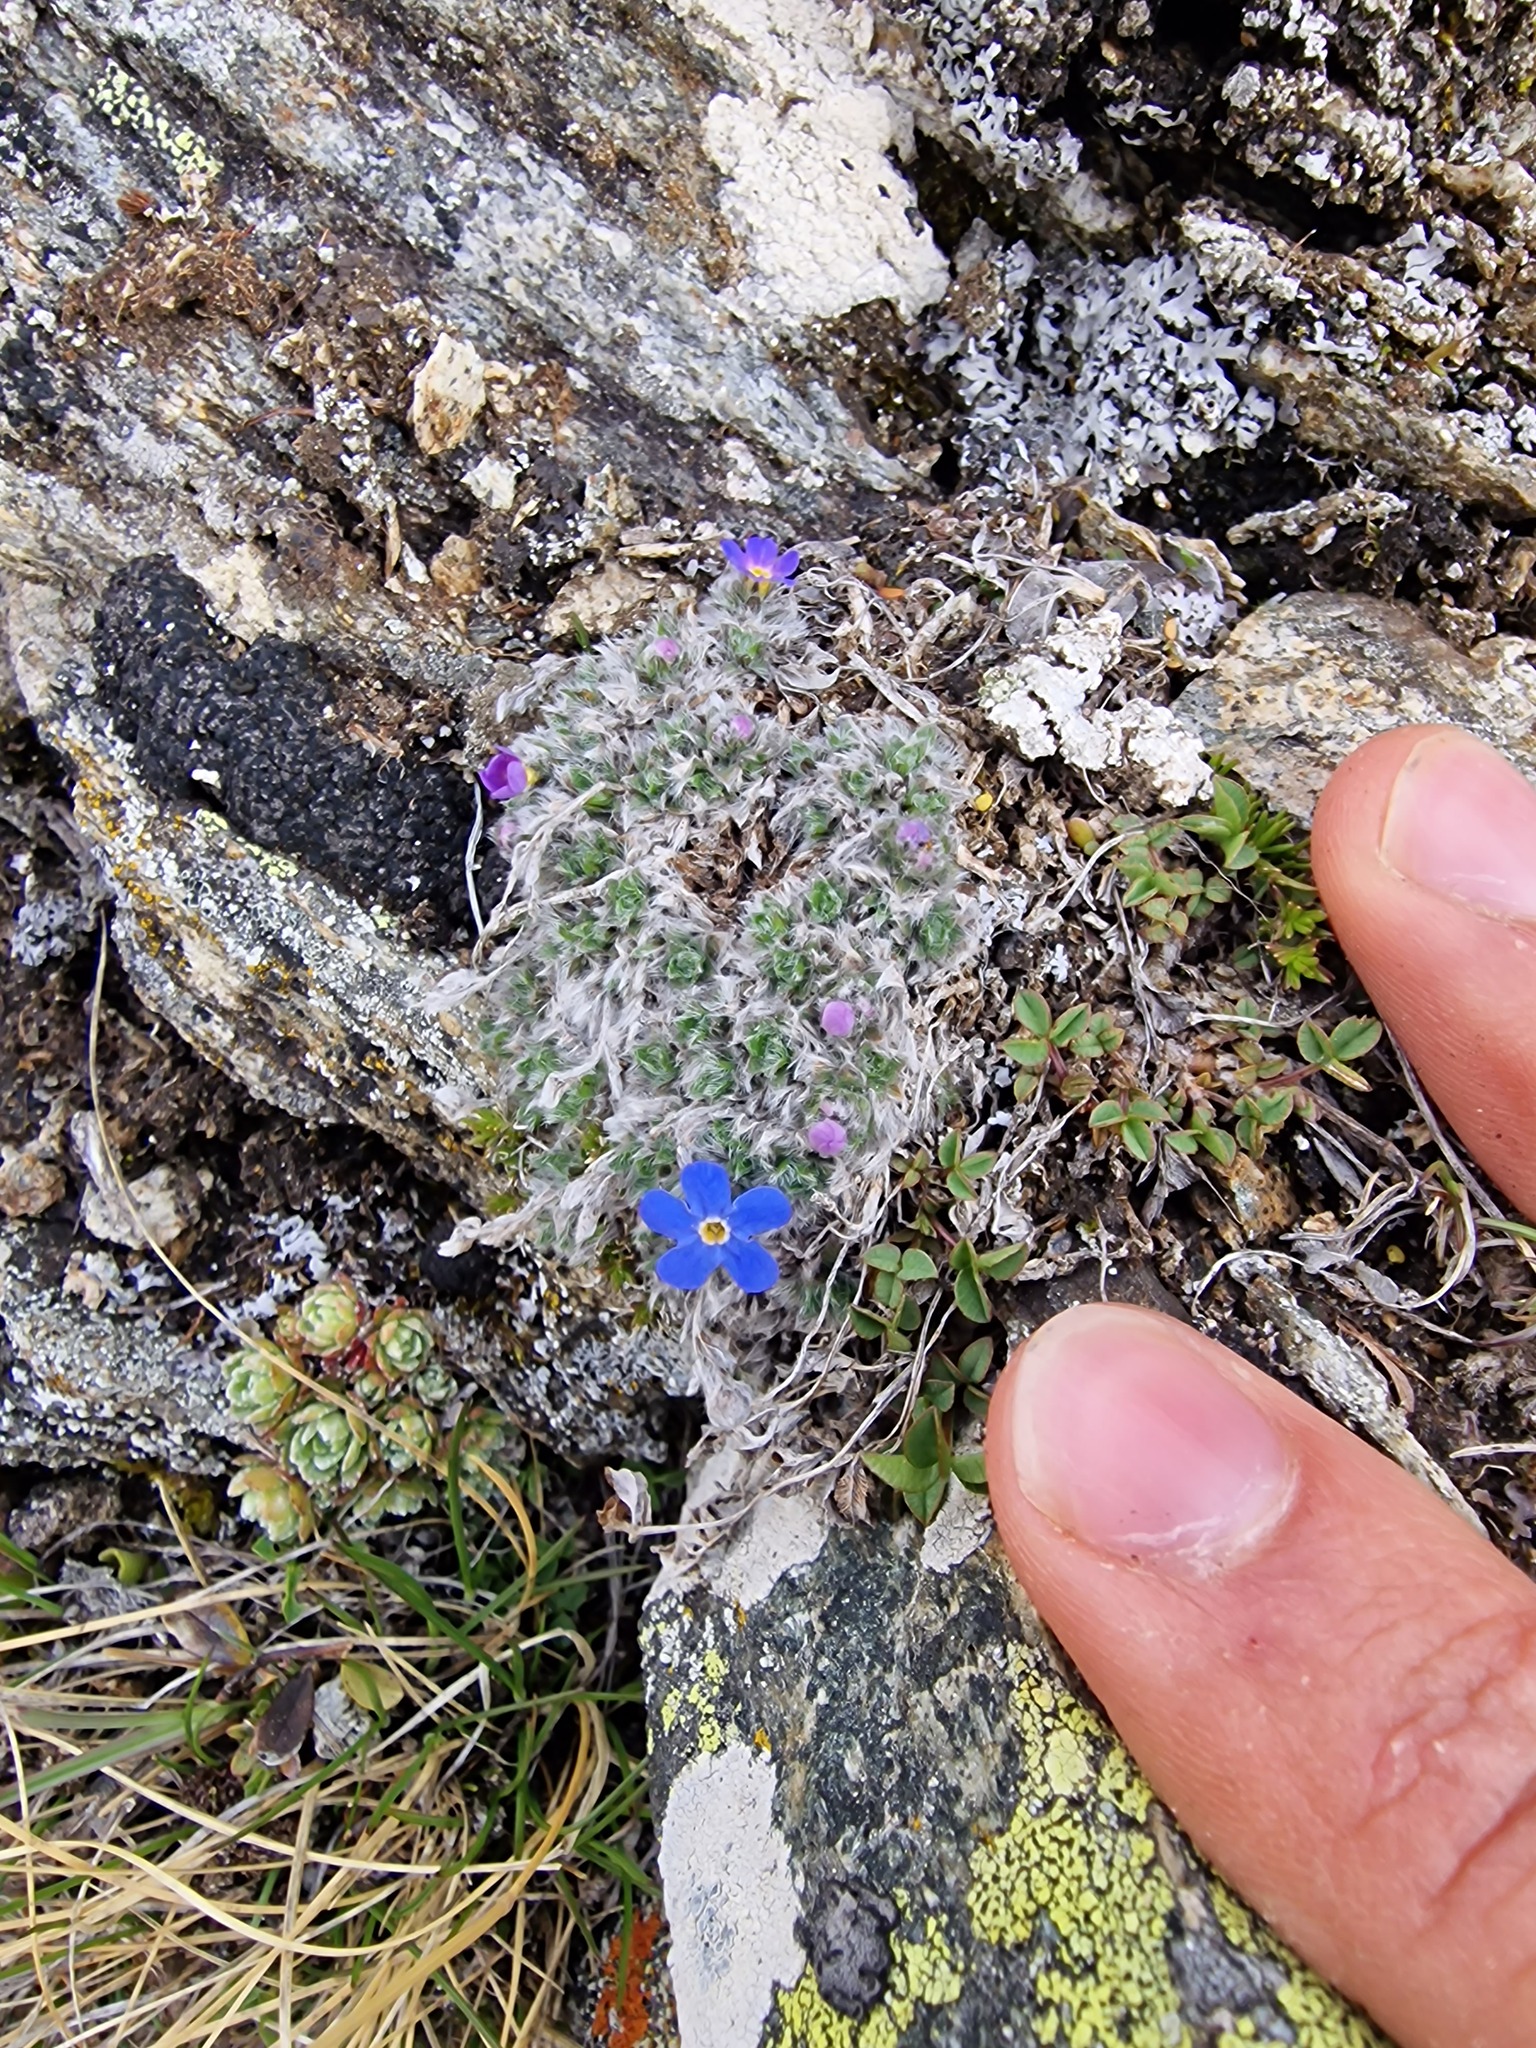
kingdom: Plantae
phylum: Tracheophyta
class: Magnoliopsida
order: Boraginales
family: Boraginaceae
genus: Eritrichium
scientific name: Eritrichium nanum
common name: King-of-the-alps
